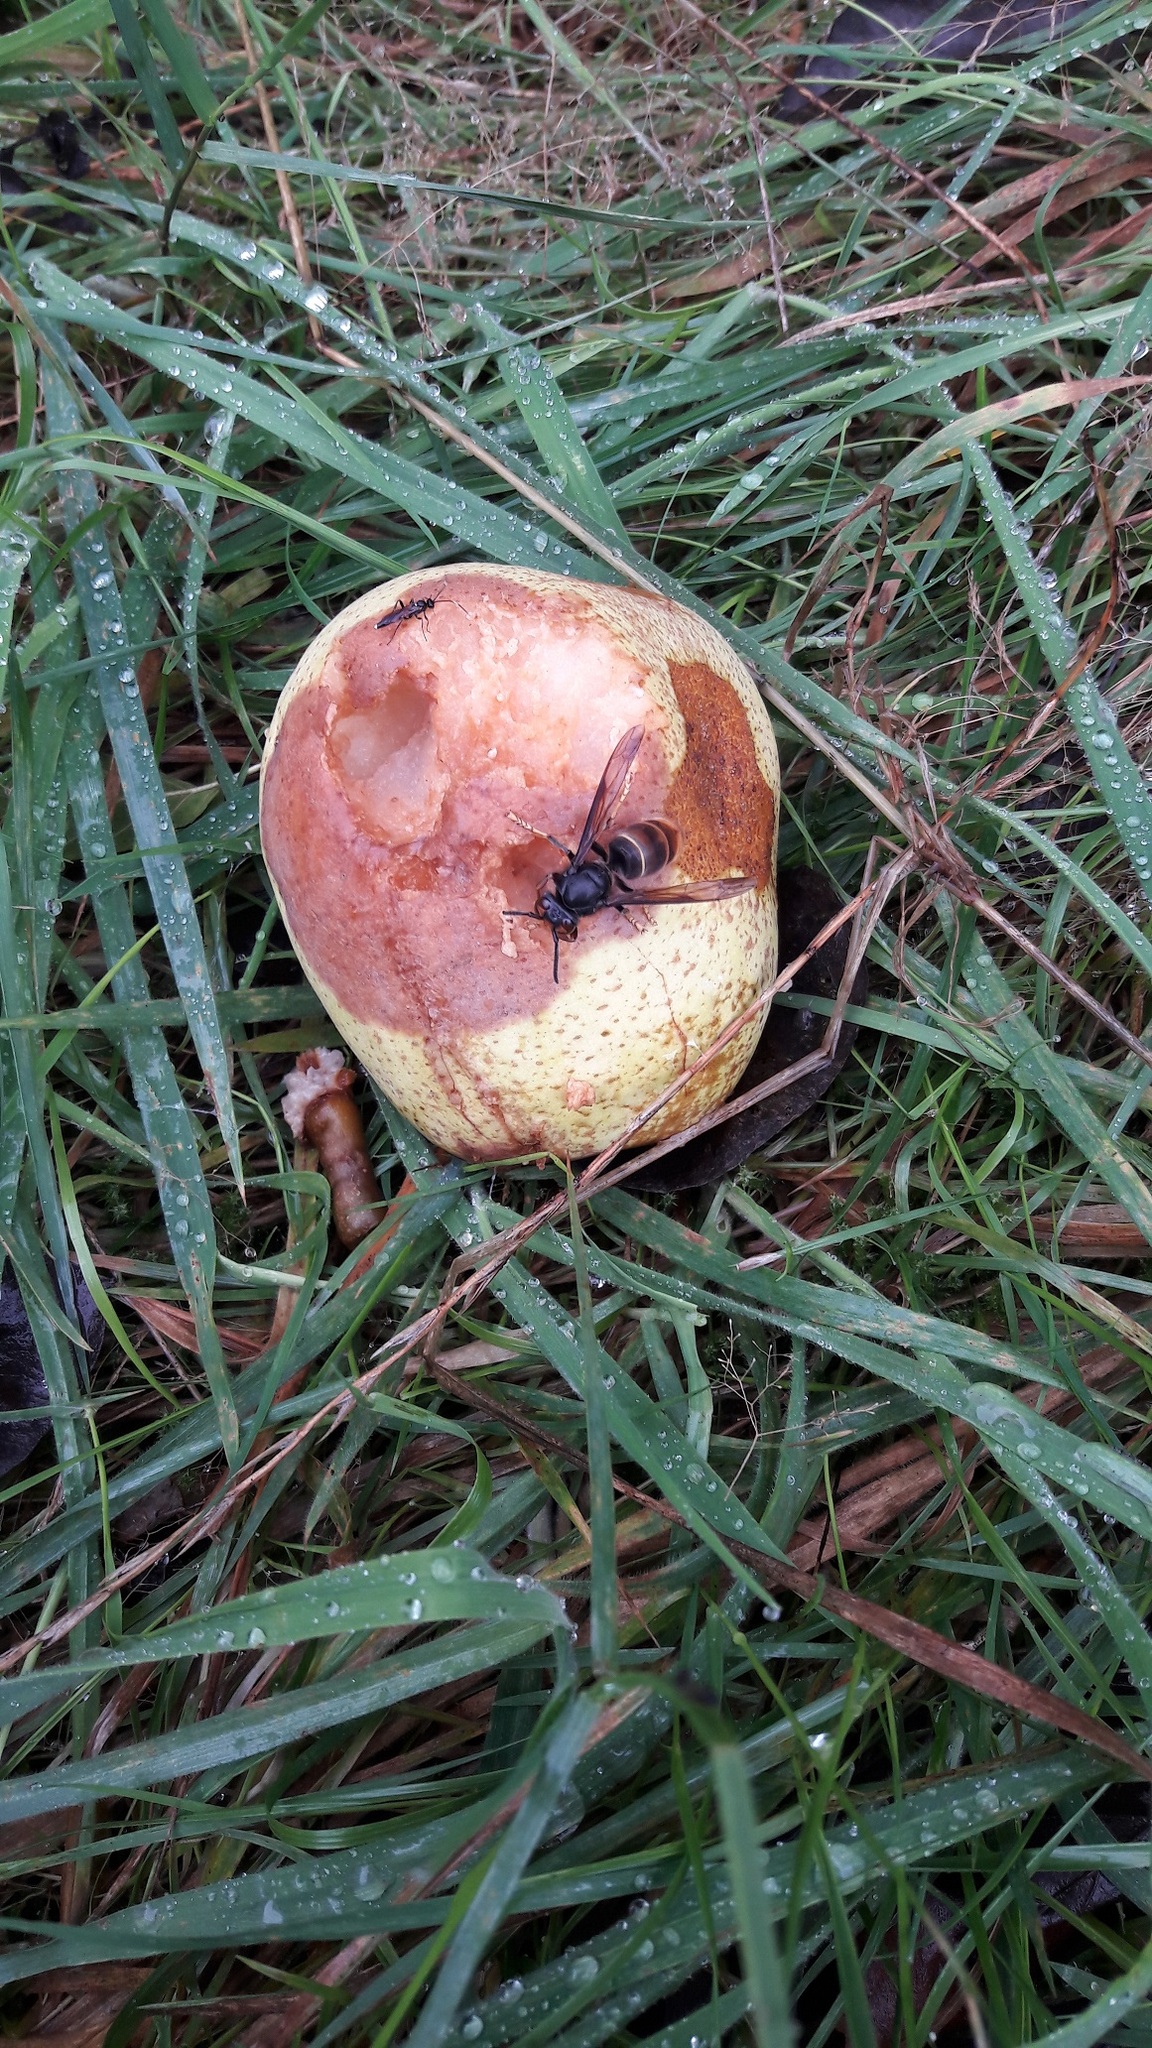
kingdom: Animalia
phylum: Arthropoda
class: Insecta
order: Hymenoptera
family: Vespidae
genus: Vespa
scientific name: Vespa velutina
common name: Asian hornet
